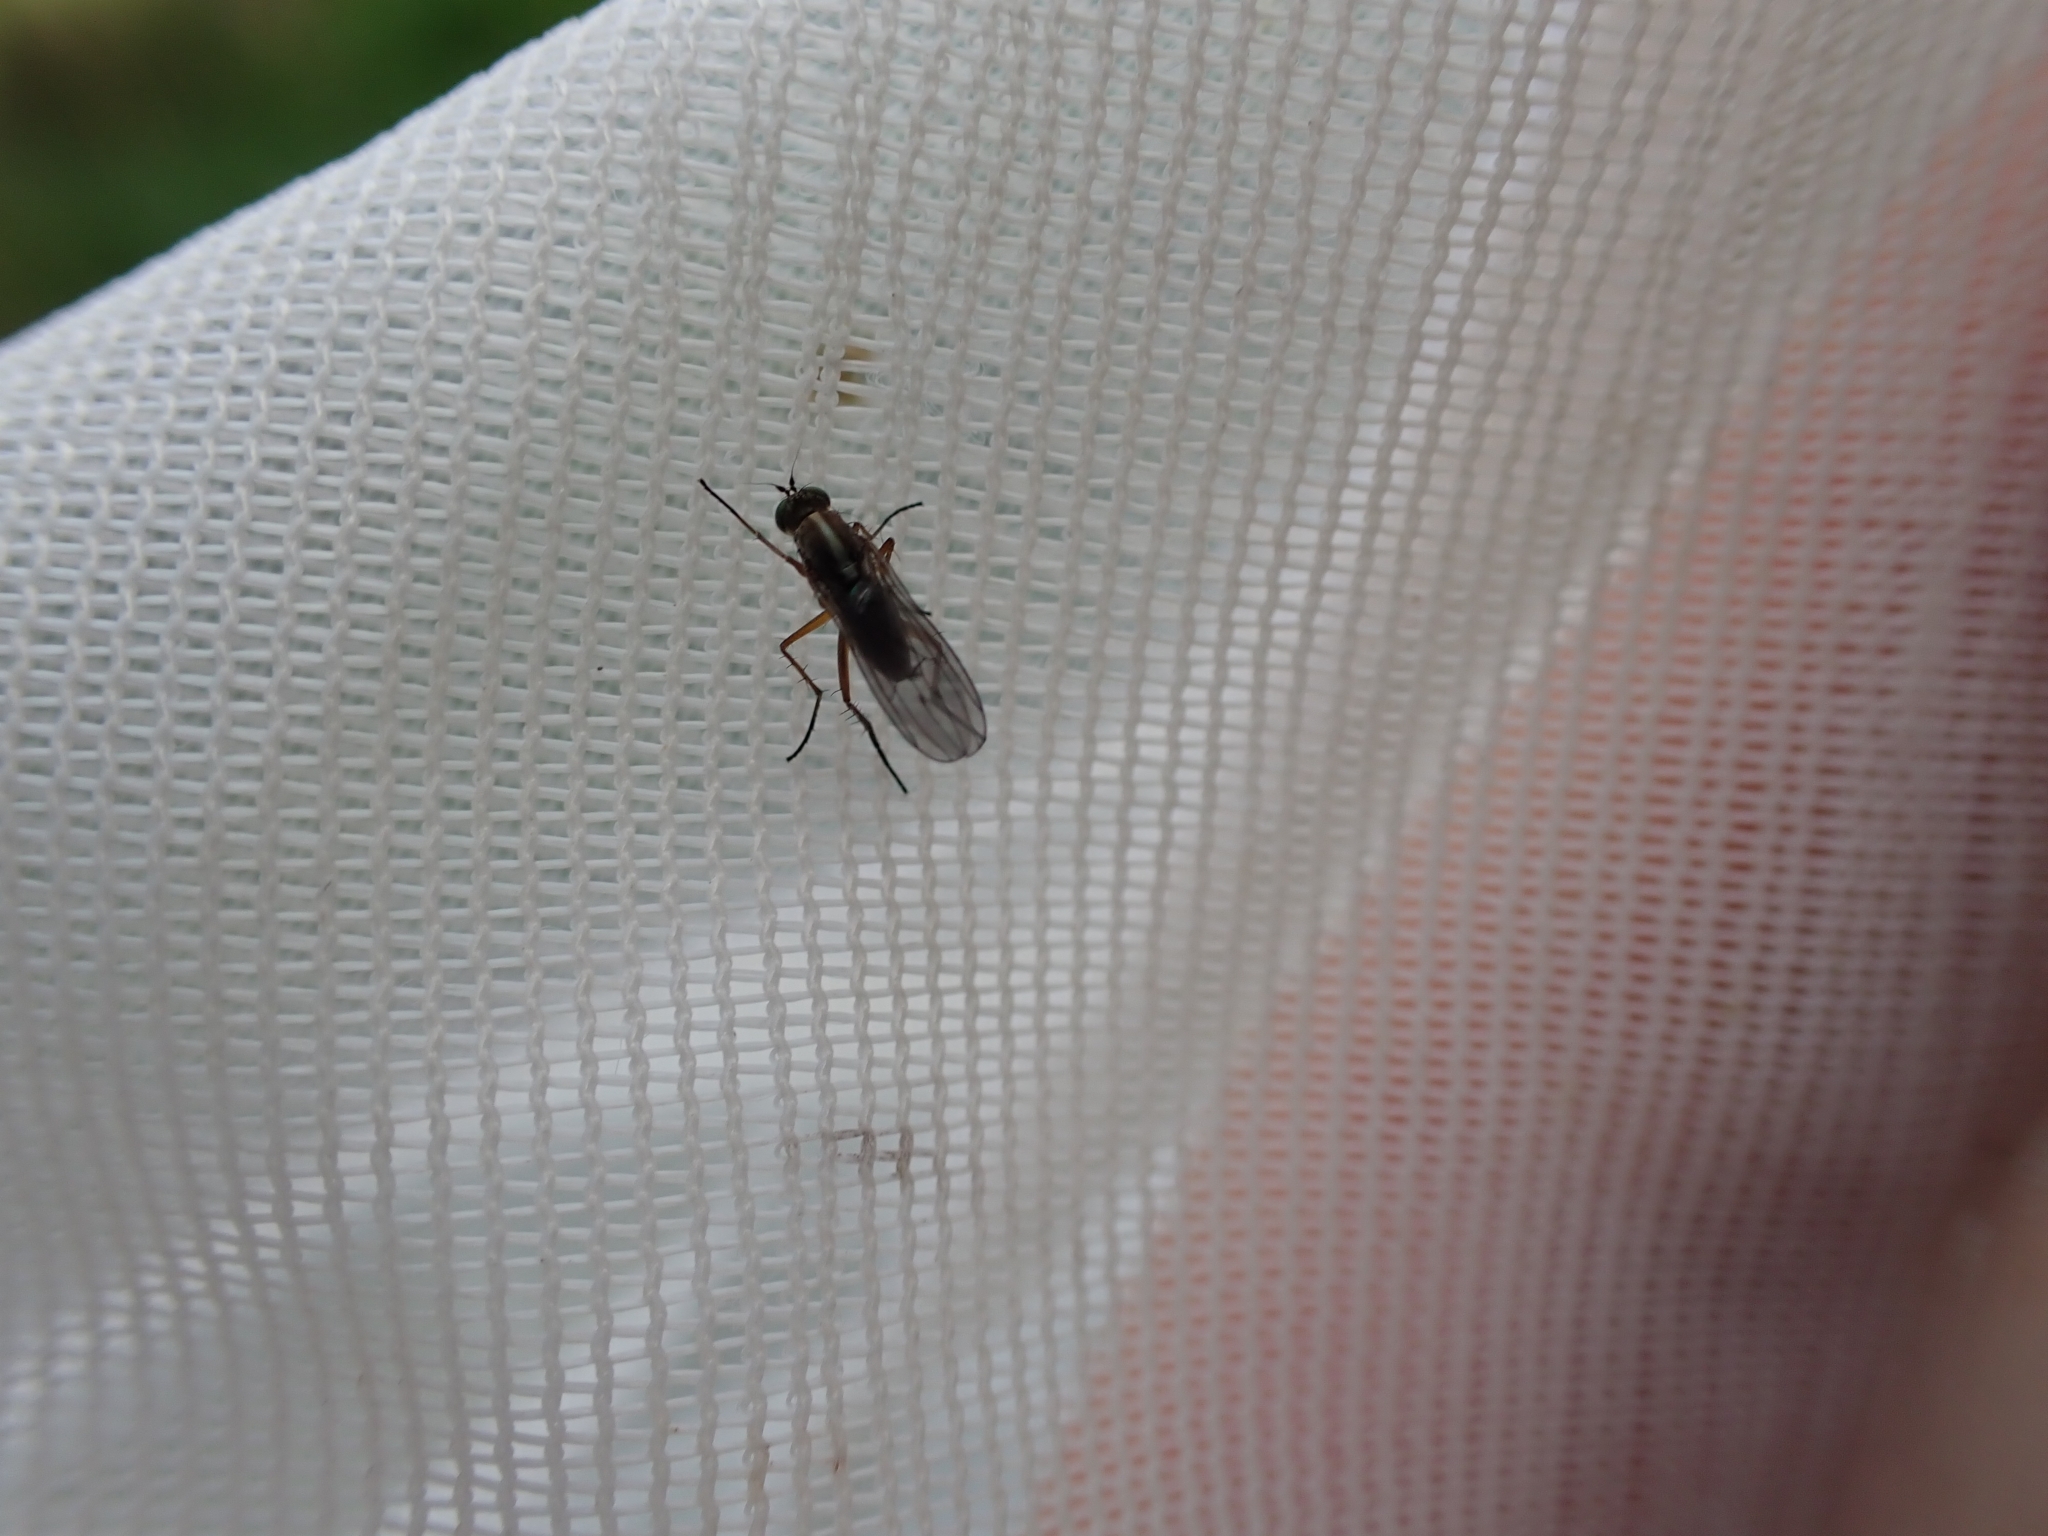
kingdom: Animalia
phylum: Arthropoda
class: Insecta
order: Diptera
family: Dolichopodidae
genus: Tetrachaetus
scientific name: Tetrachaetus bipunctatus
